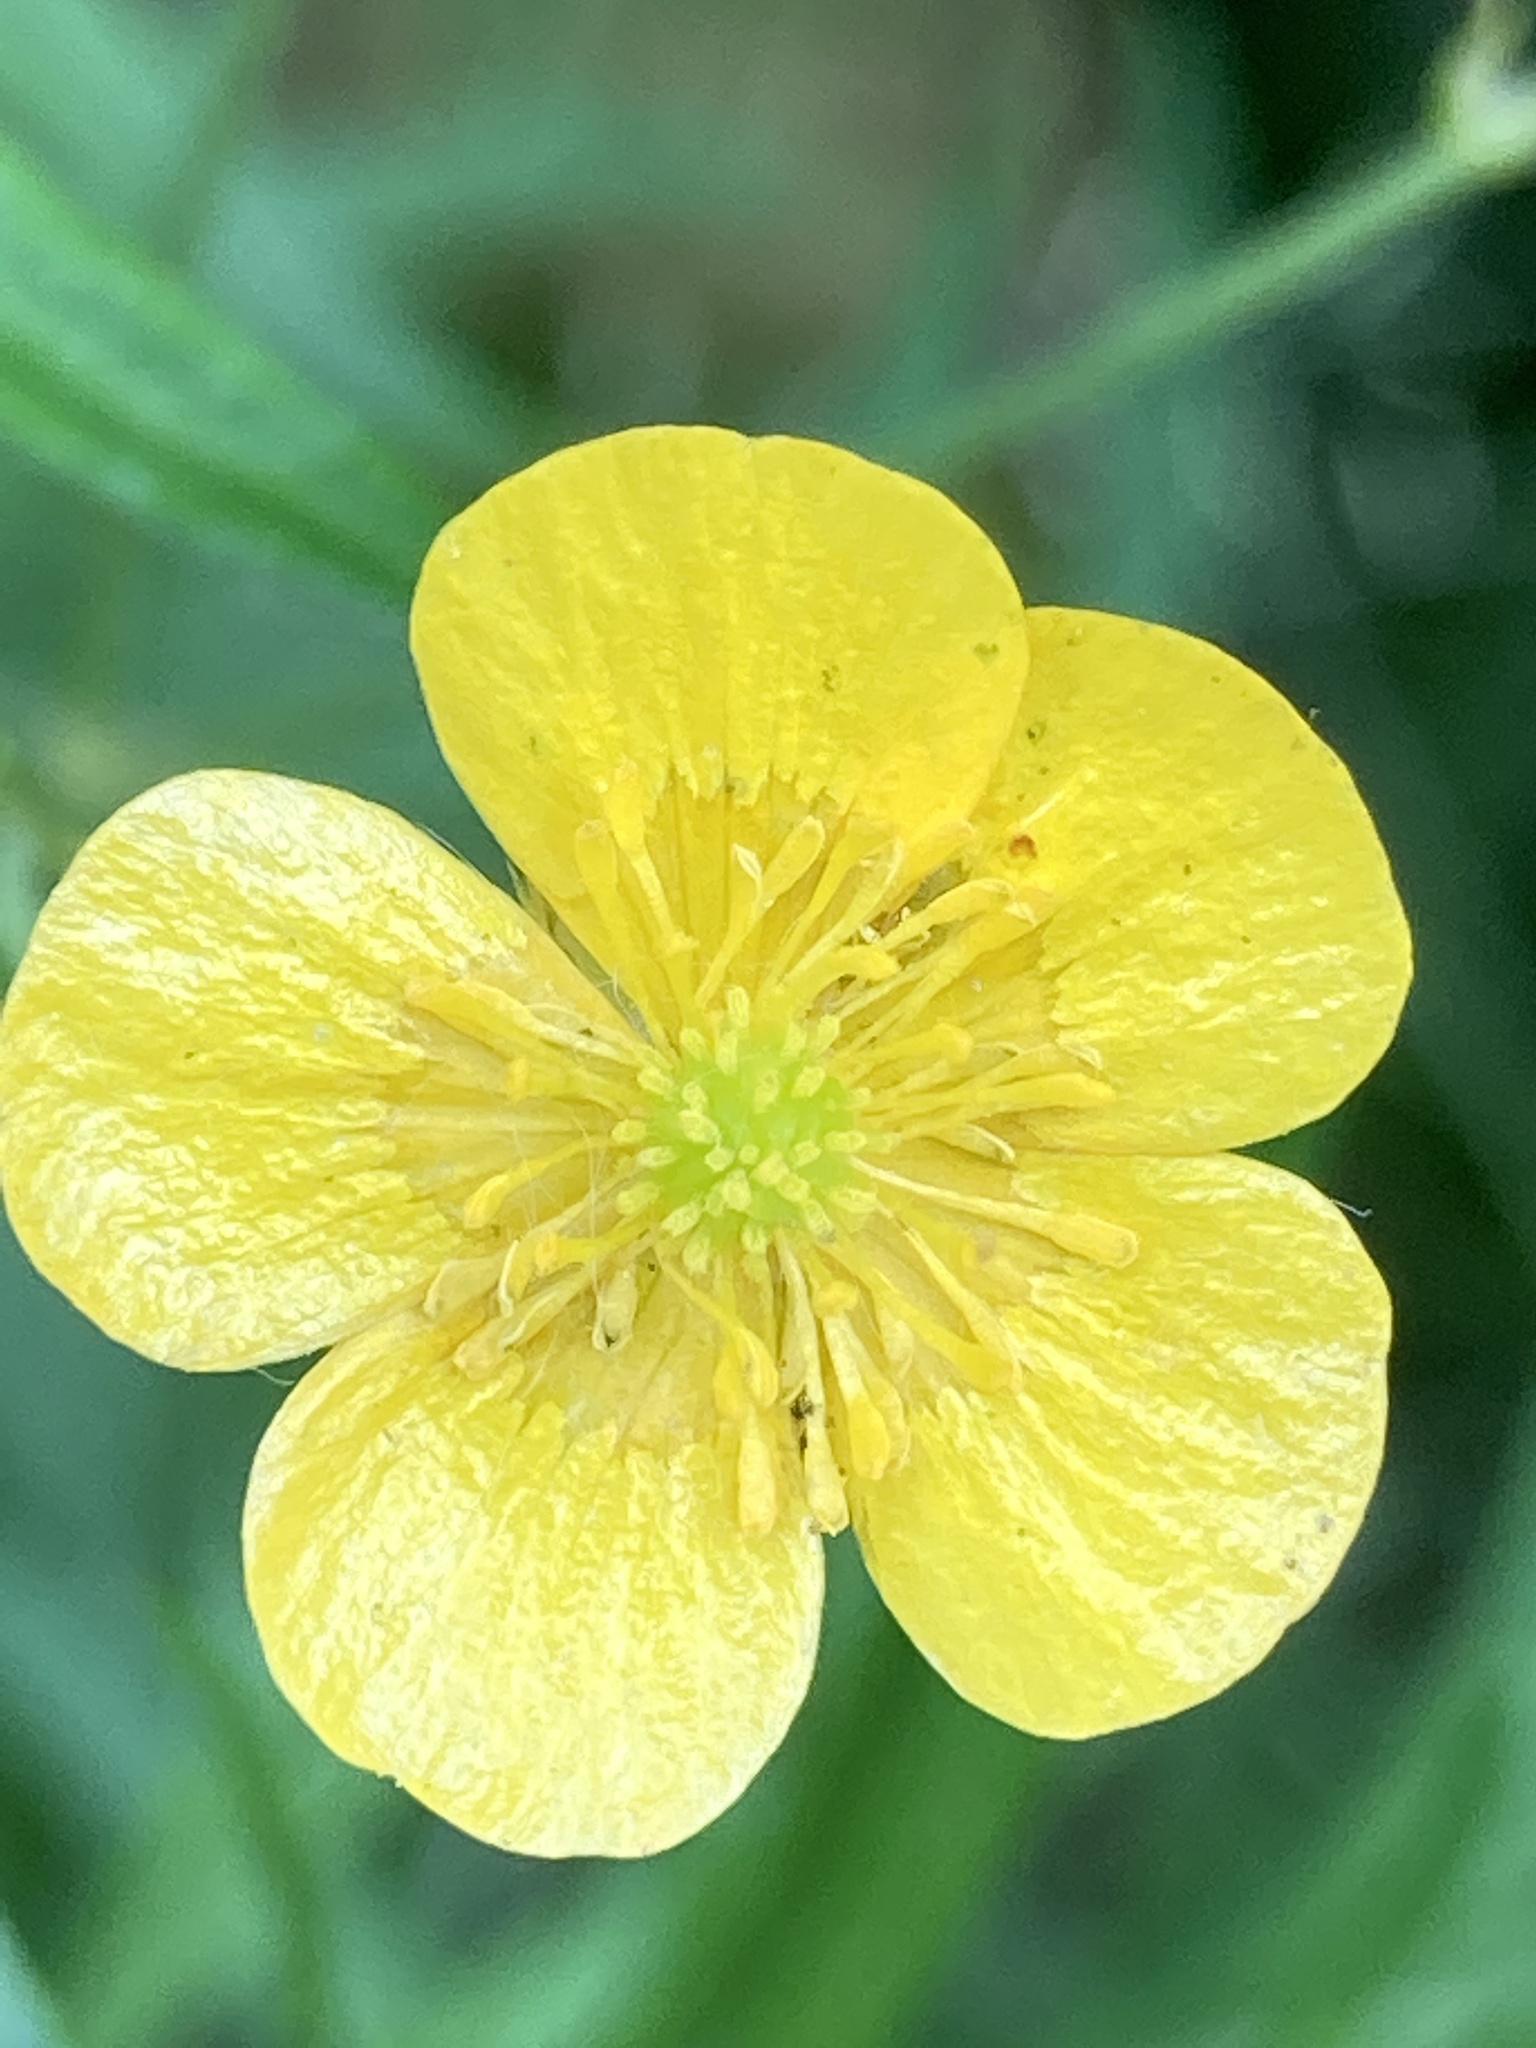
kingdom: Plantae
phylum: Tracheophyta
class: Magnoliopsida
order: Ranunculales
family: Ranunculaceae
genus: Ranunculus
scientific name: Ranunculus acris
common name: Meadow buttercup
